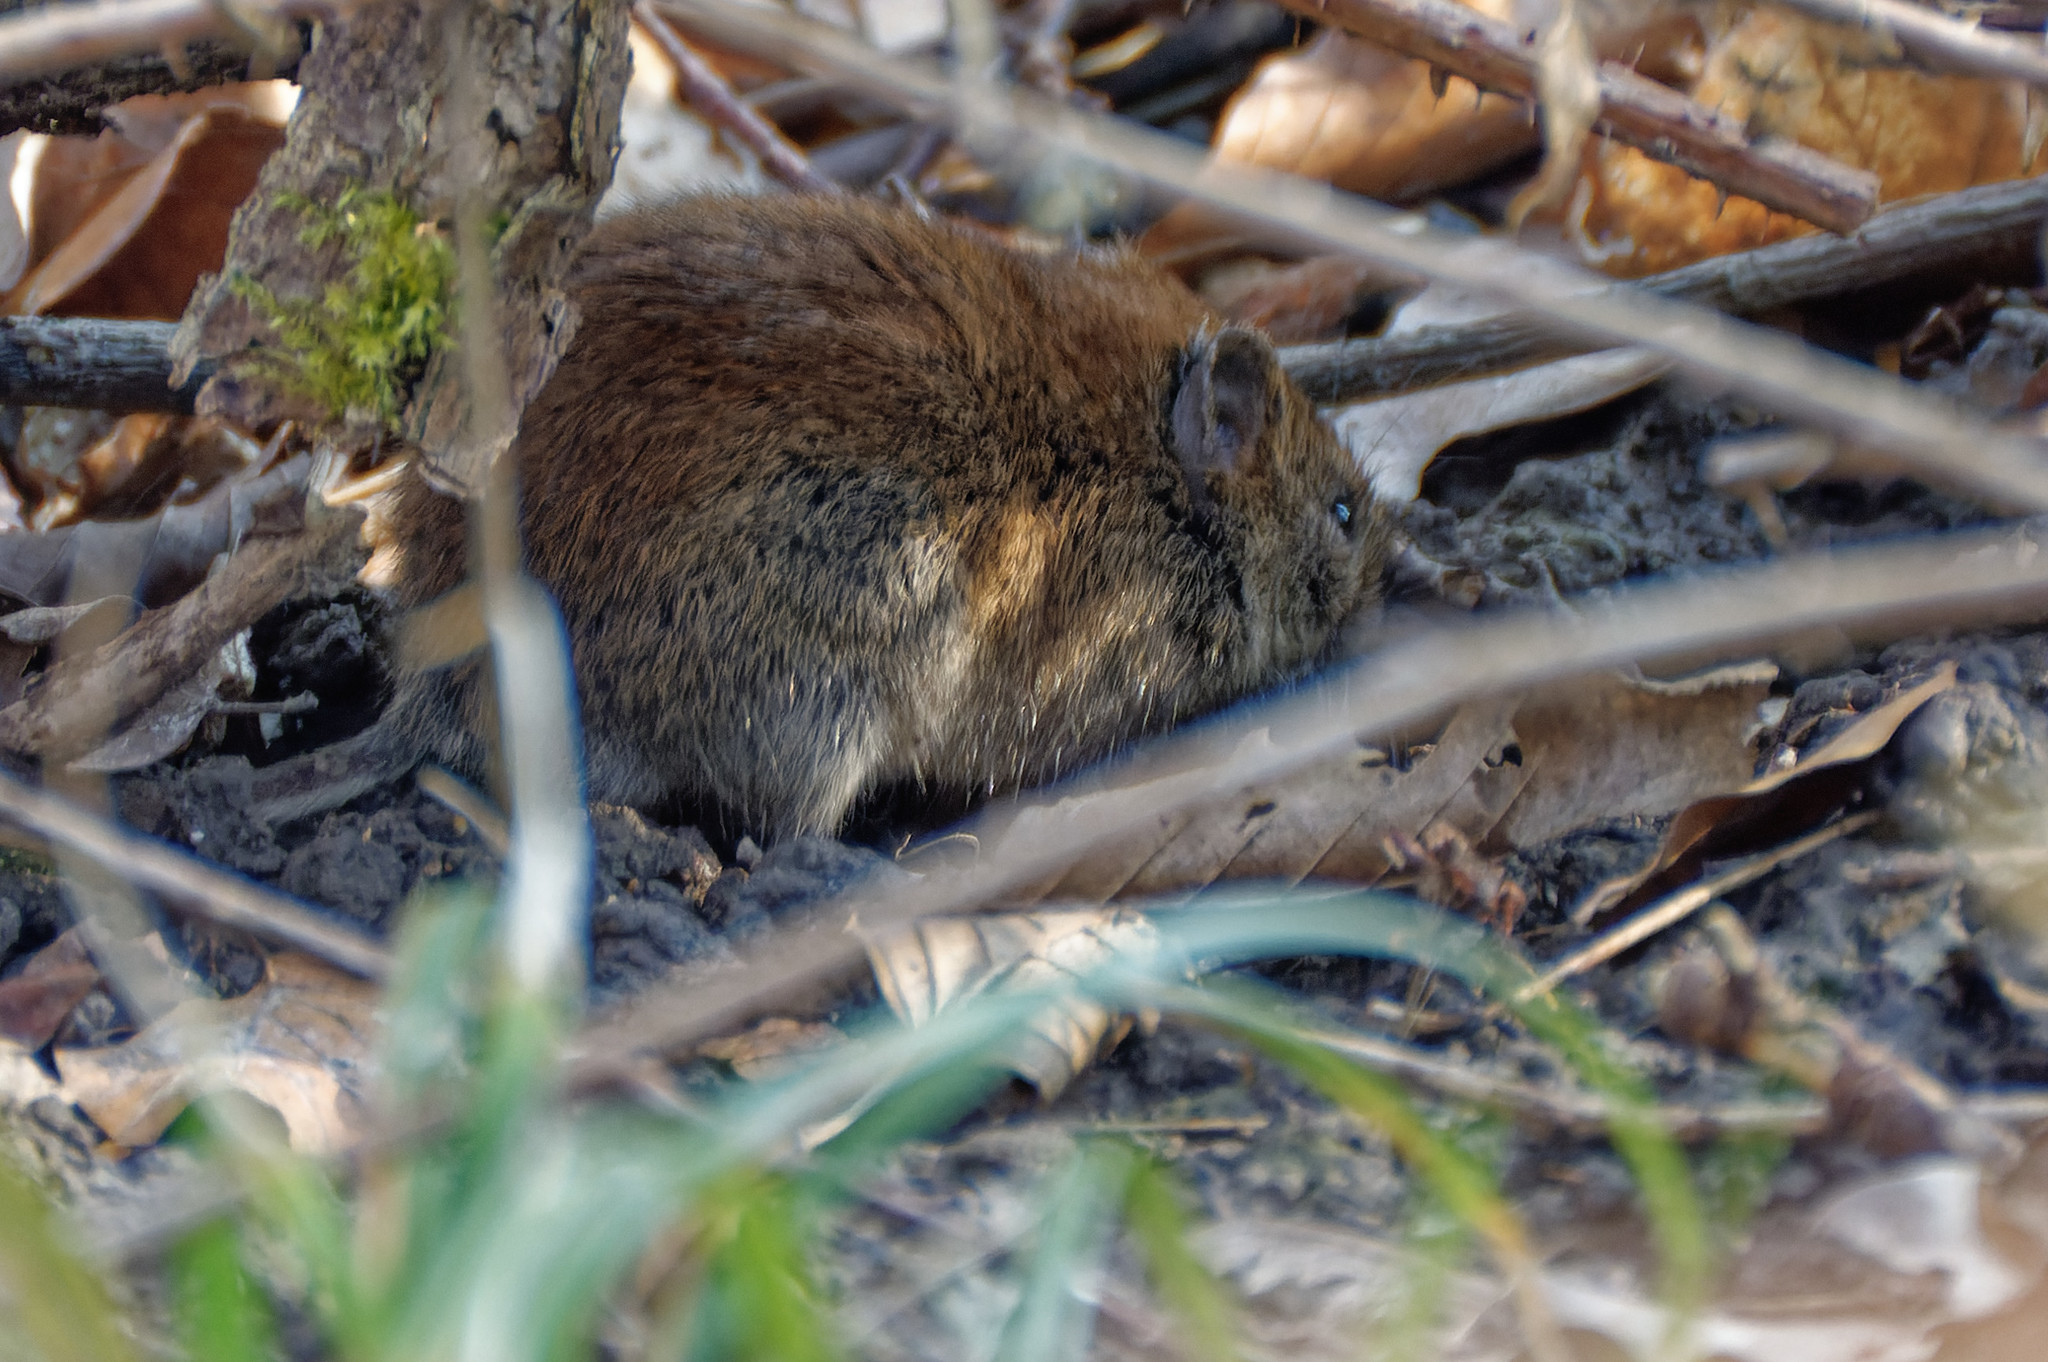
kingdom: Animalia
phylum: Chordata
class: Mammalia
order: Rodentia
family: Cricetidae
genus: Myodes
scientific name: Myodes glareolus
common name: Bank vole
